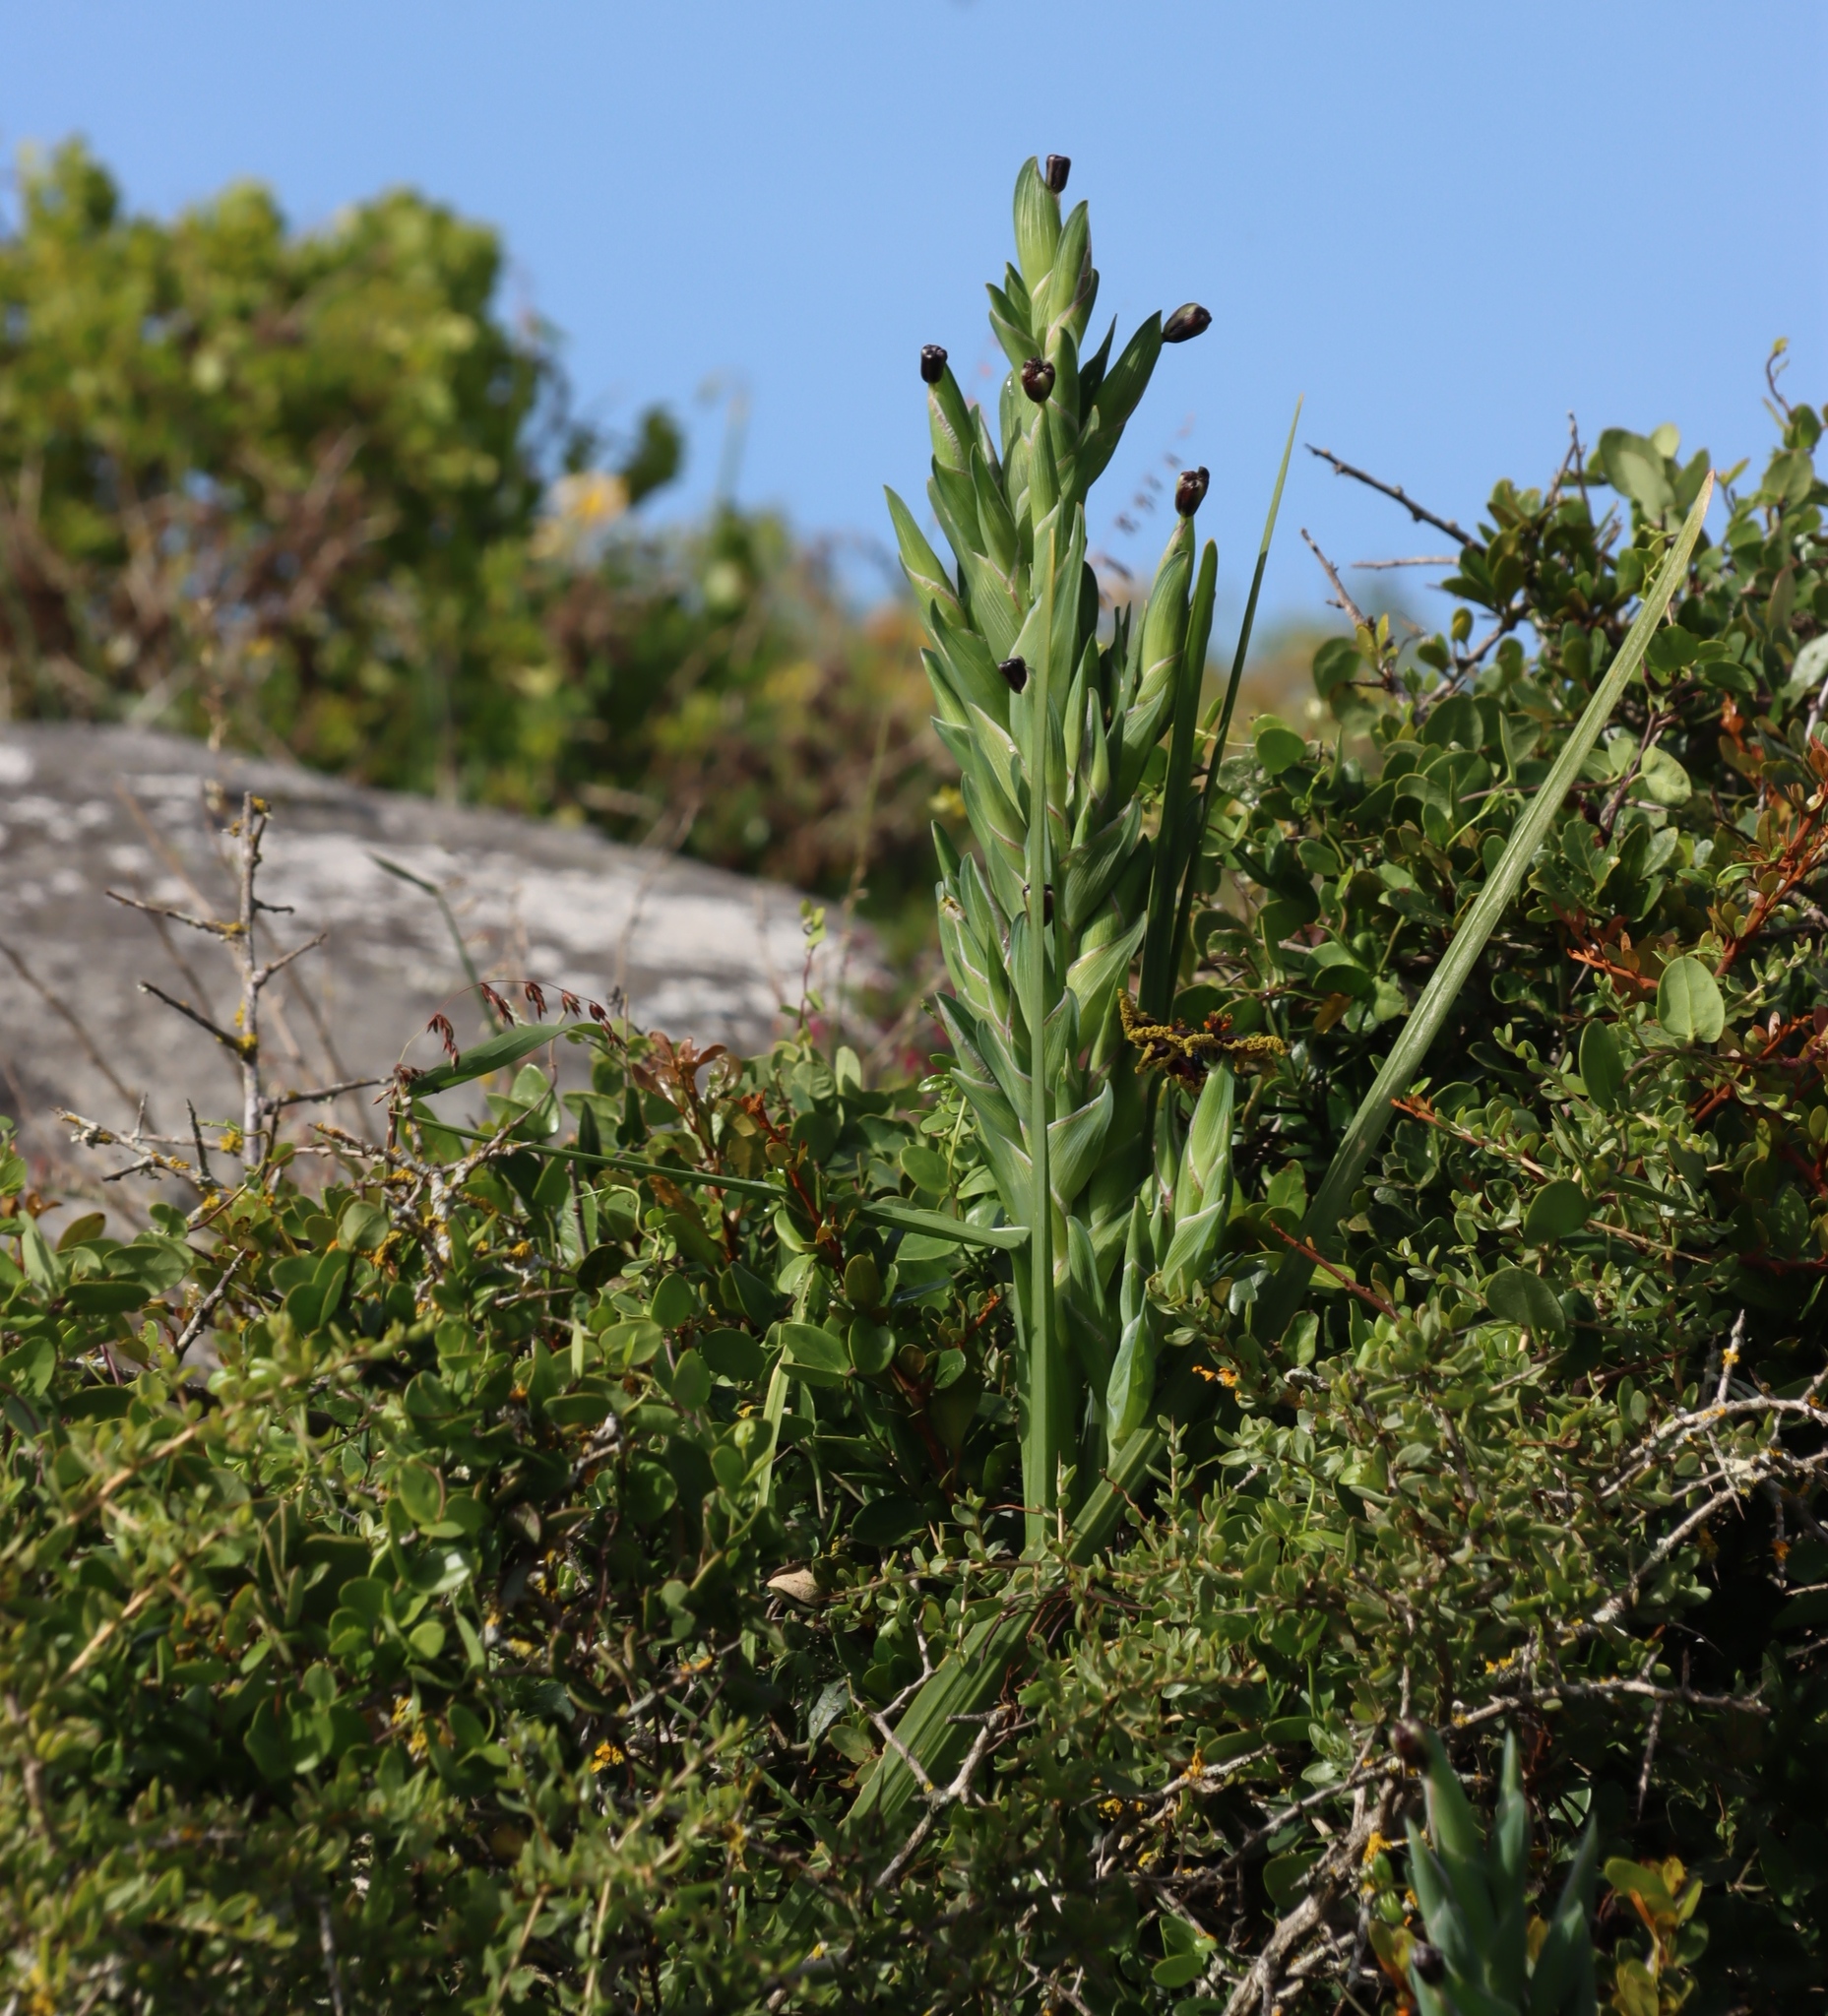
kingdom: Plantae
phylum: Tracheophyta
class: Liliopsida
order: Asparagales
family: Iridaceae
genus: Ferraria
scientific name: Ferraria crispa
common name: Black-flag
